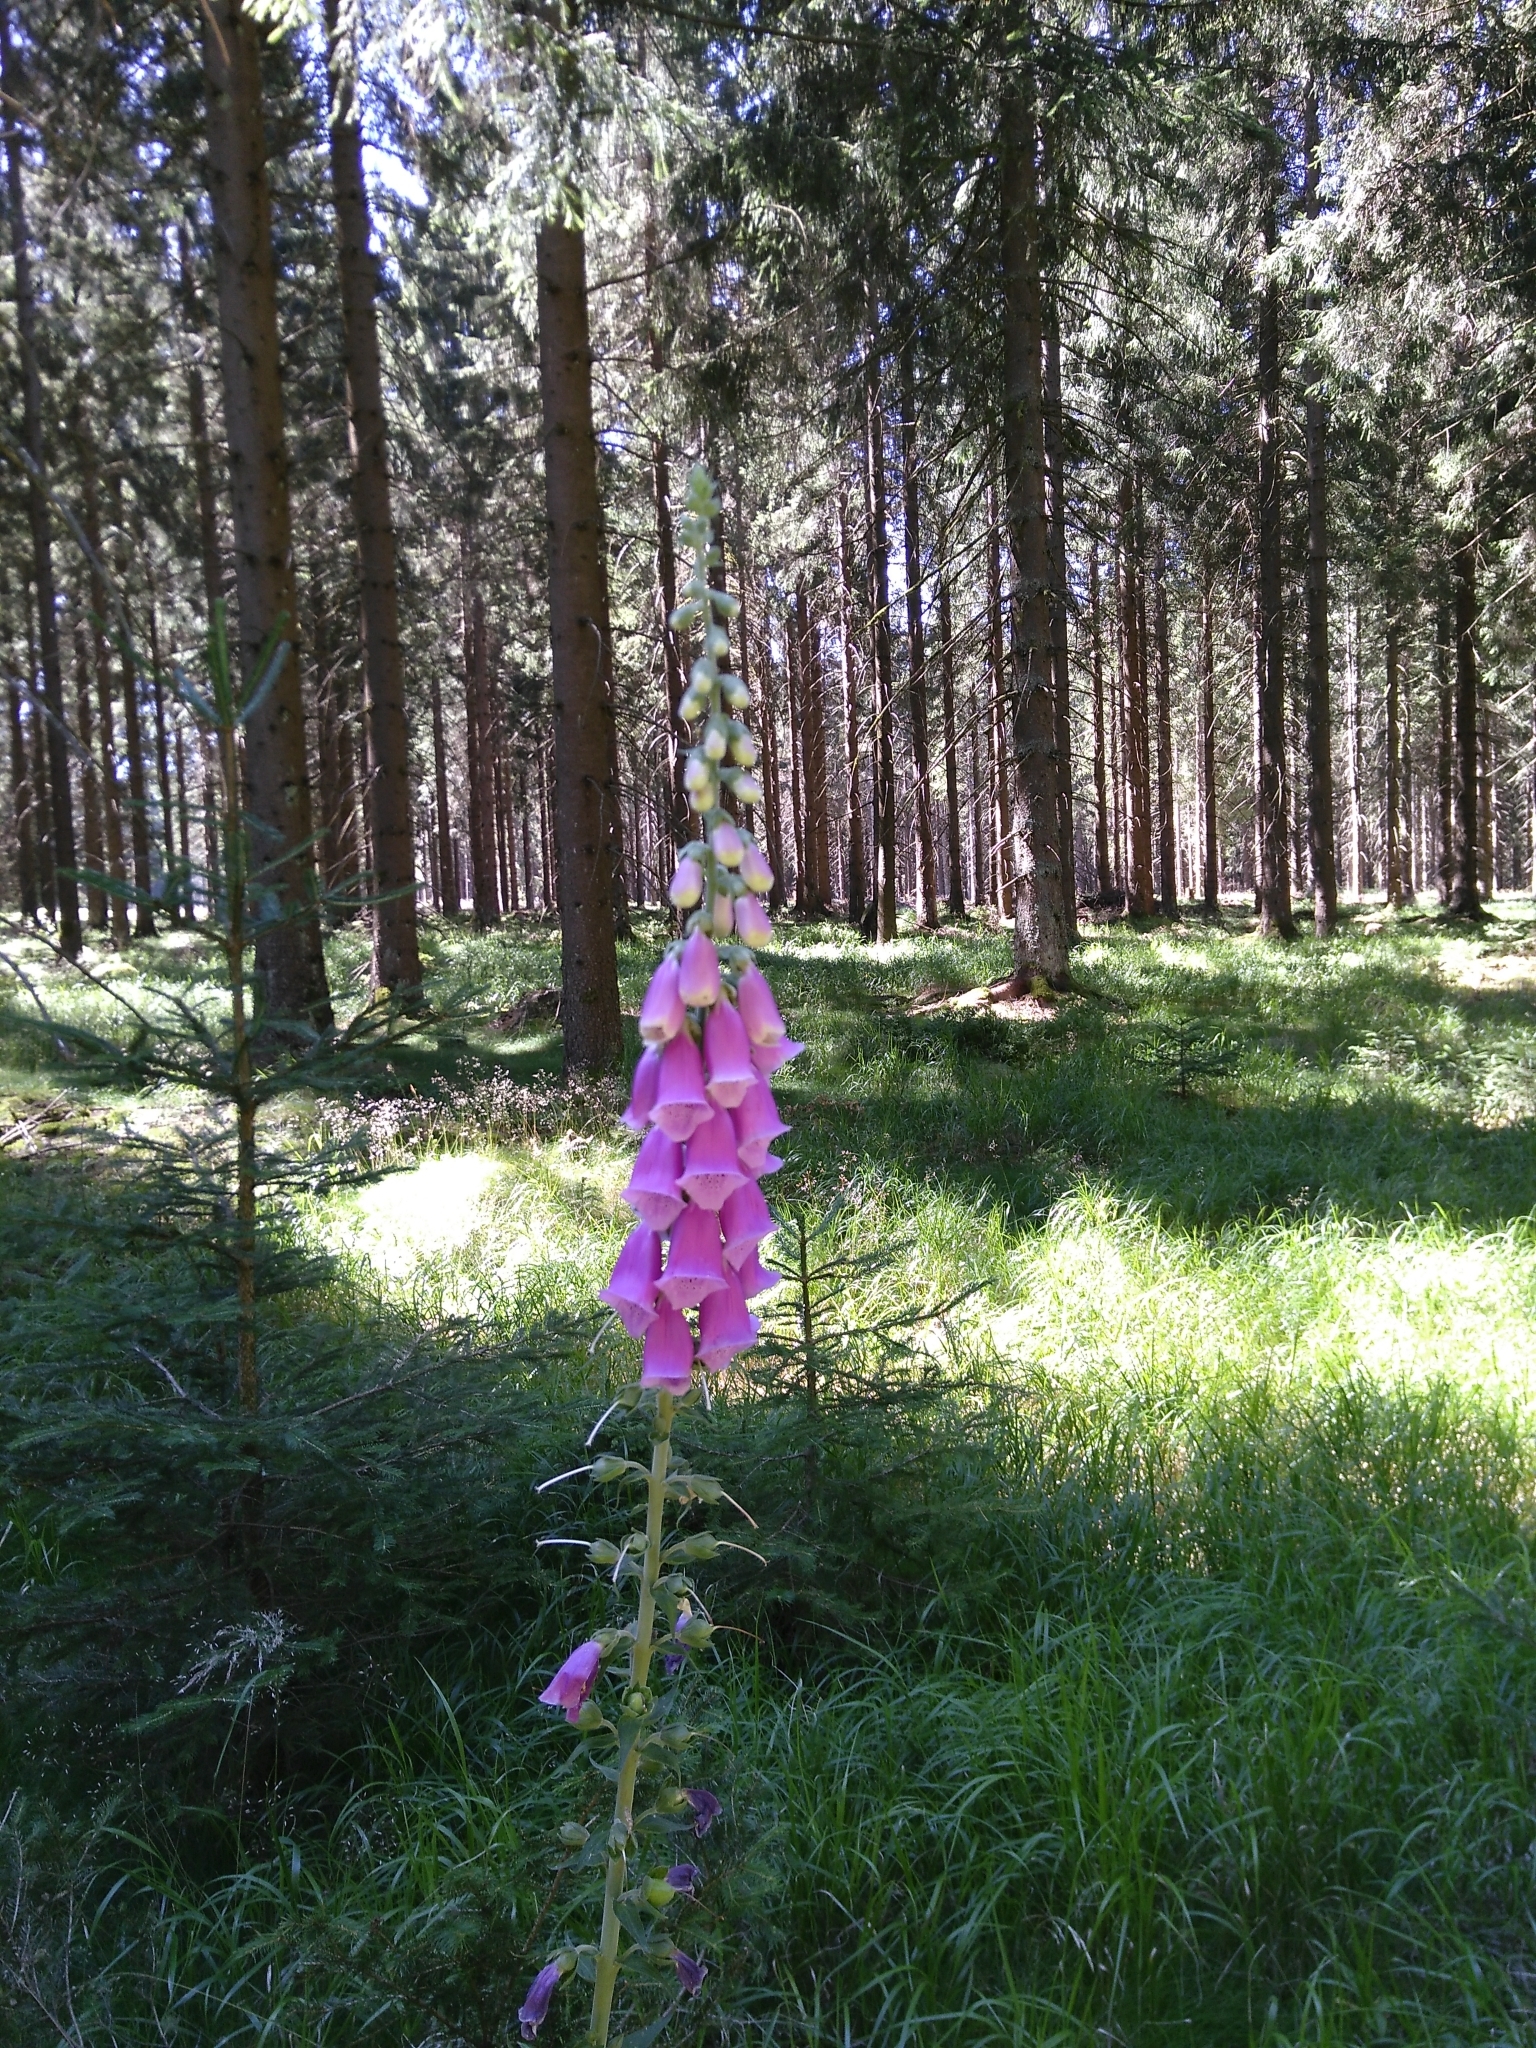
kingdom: Plantae
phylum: Tracheophyta
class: Magnoliopsida
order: Lamiales
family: Plantaginaceae
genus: Digitalis
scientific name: Digitalis purpurea
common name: Foxglove
